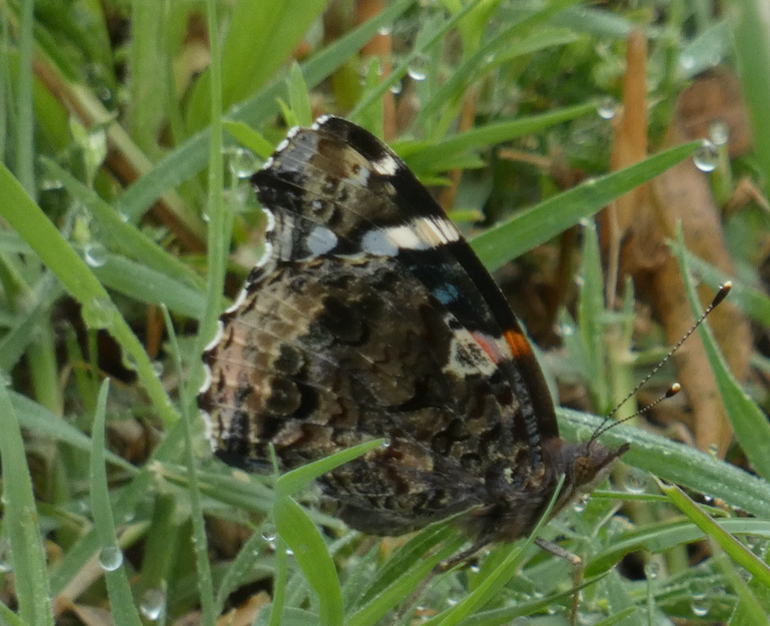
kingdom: Animalia
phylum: Arthropoda
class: Insecta
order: Lepidoptera
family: Nymphalidae
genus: Vanessa
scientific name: Vanessa atalanta
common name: Red admiral
